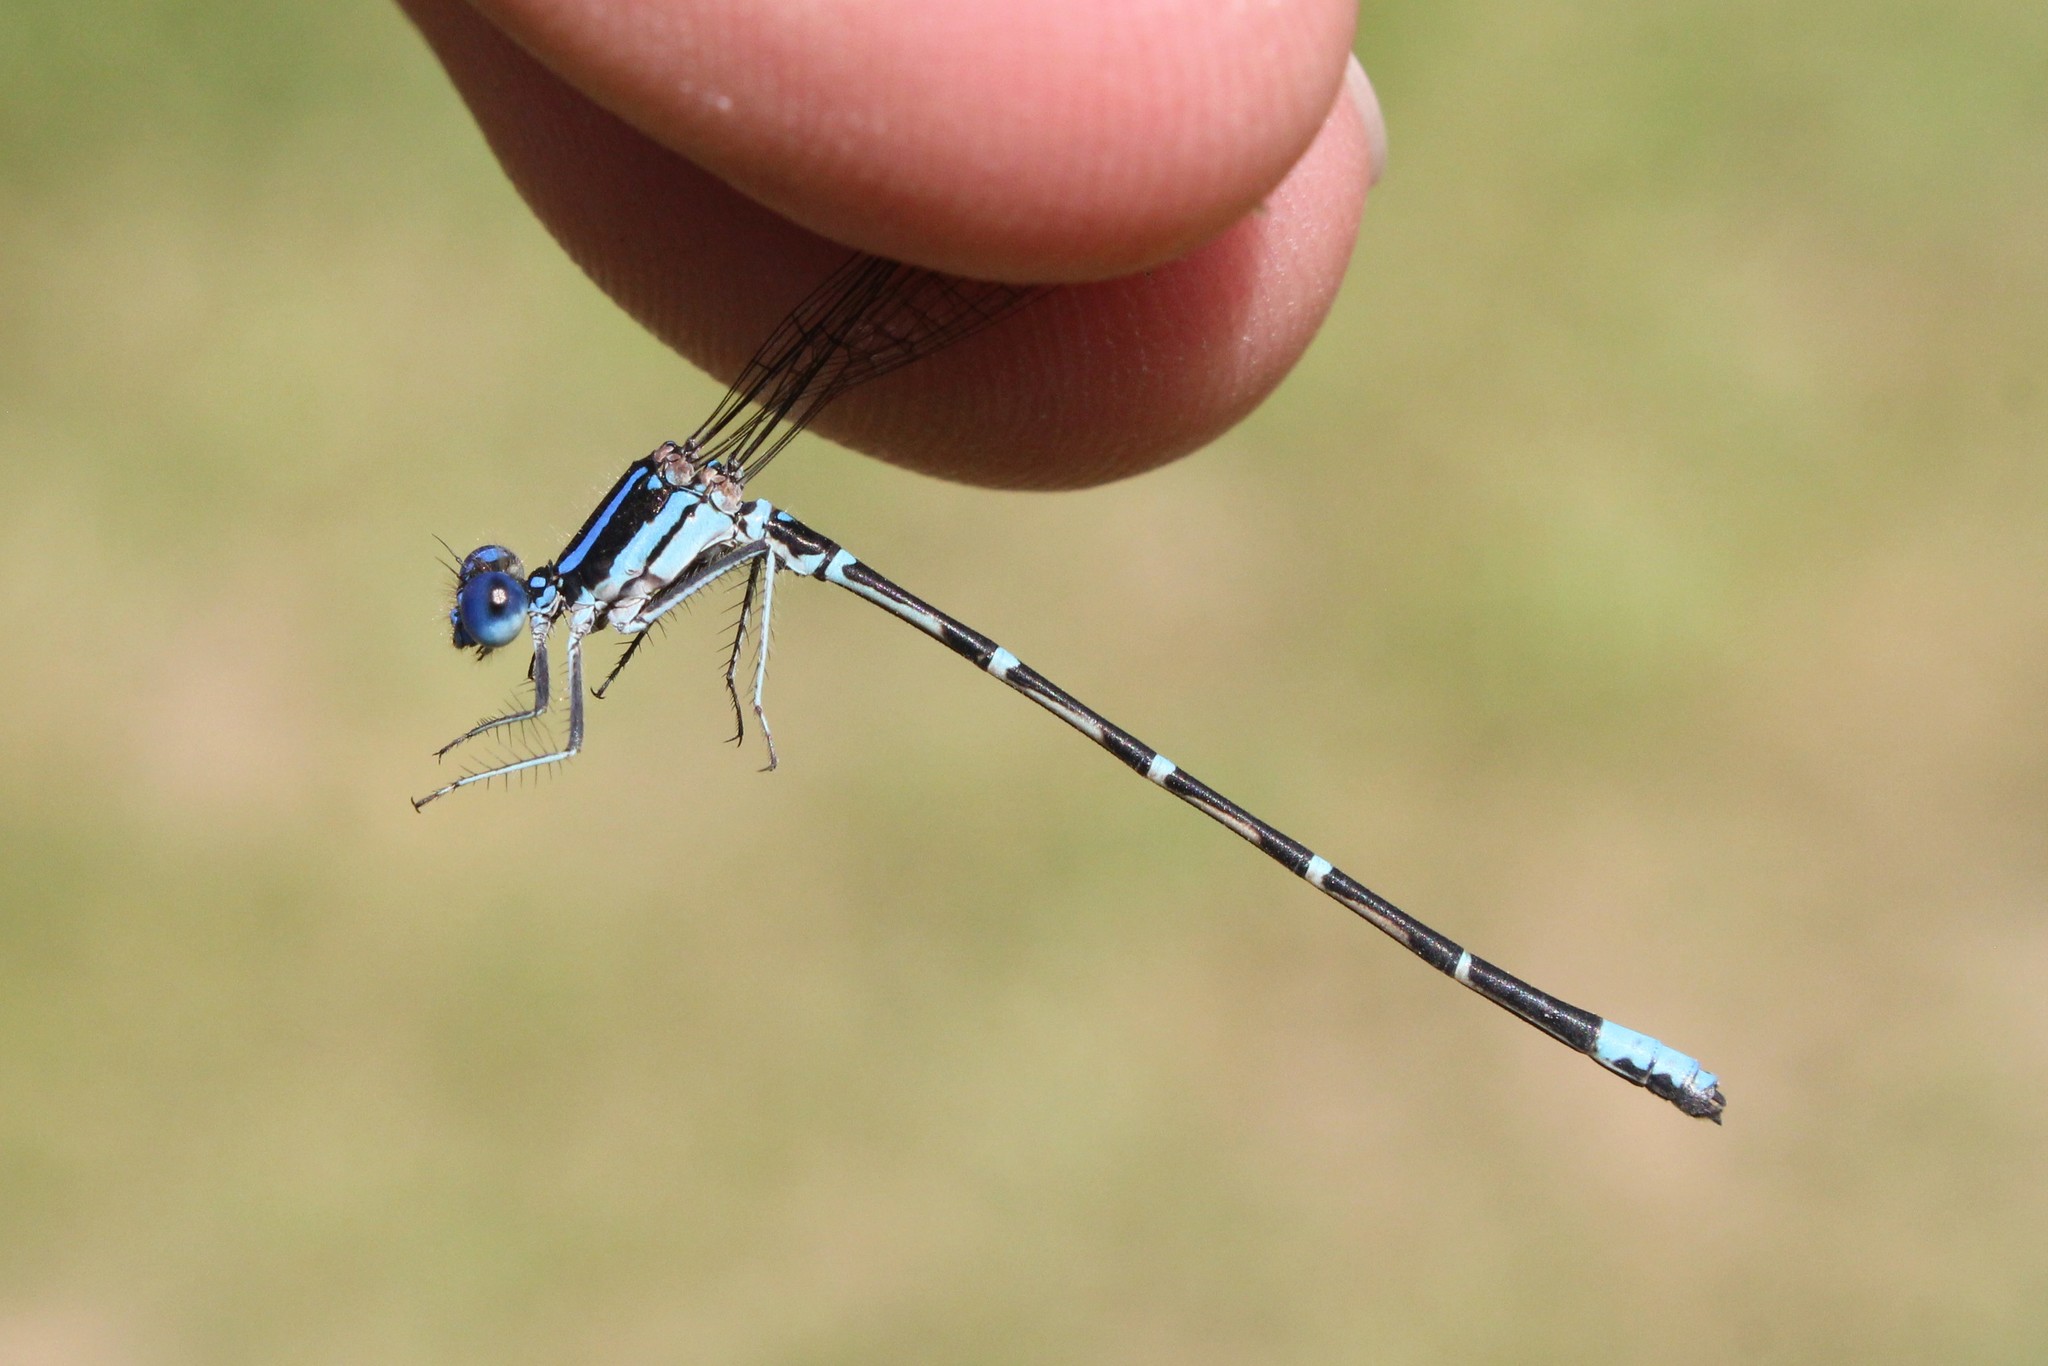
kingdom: Animalia
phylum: Arthropoda
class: Insecta
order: Odonata
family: Coenagrionidae
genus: Argia
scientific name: Argia sedula
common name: Blue-ringed dancer
